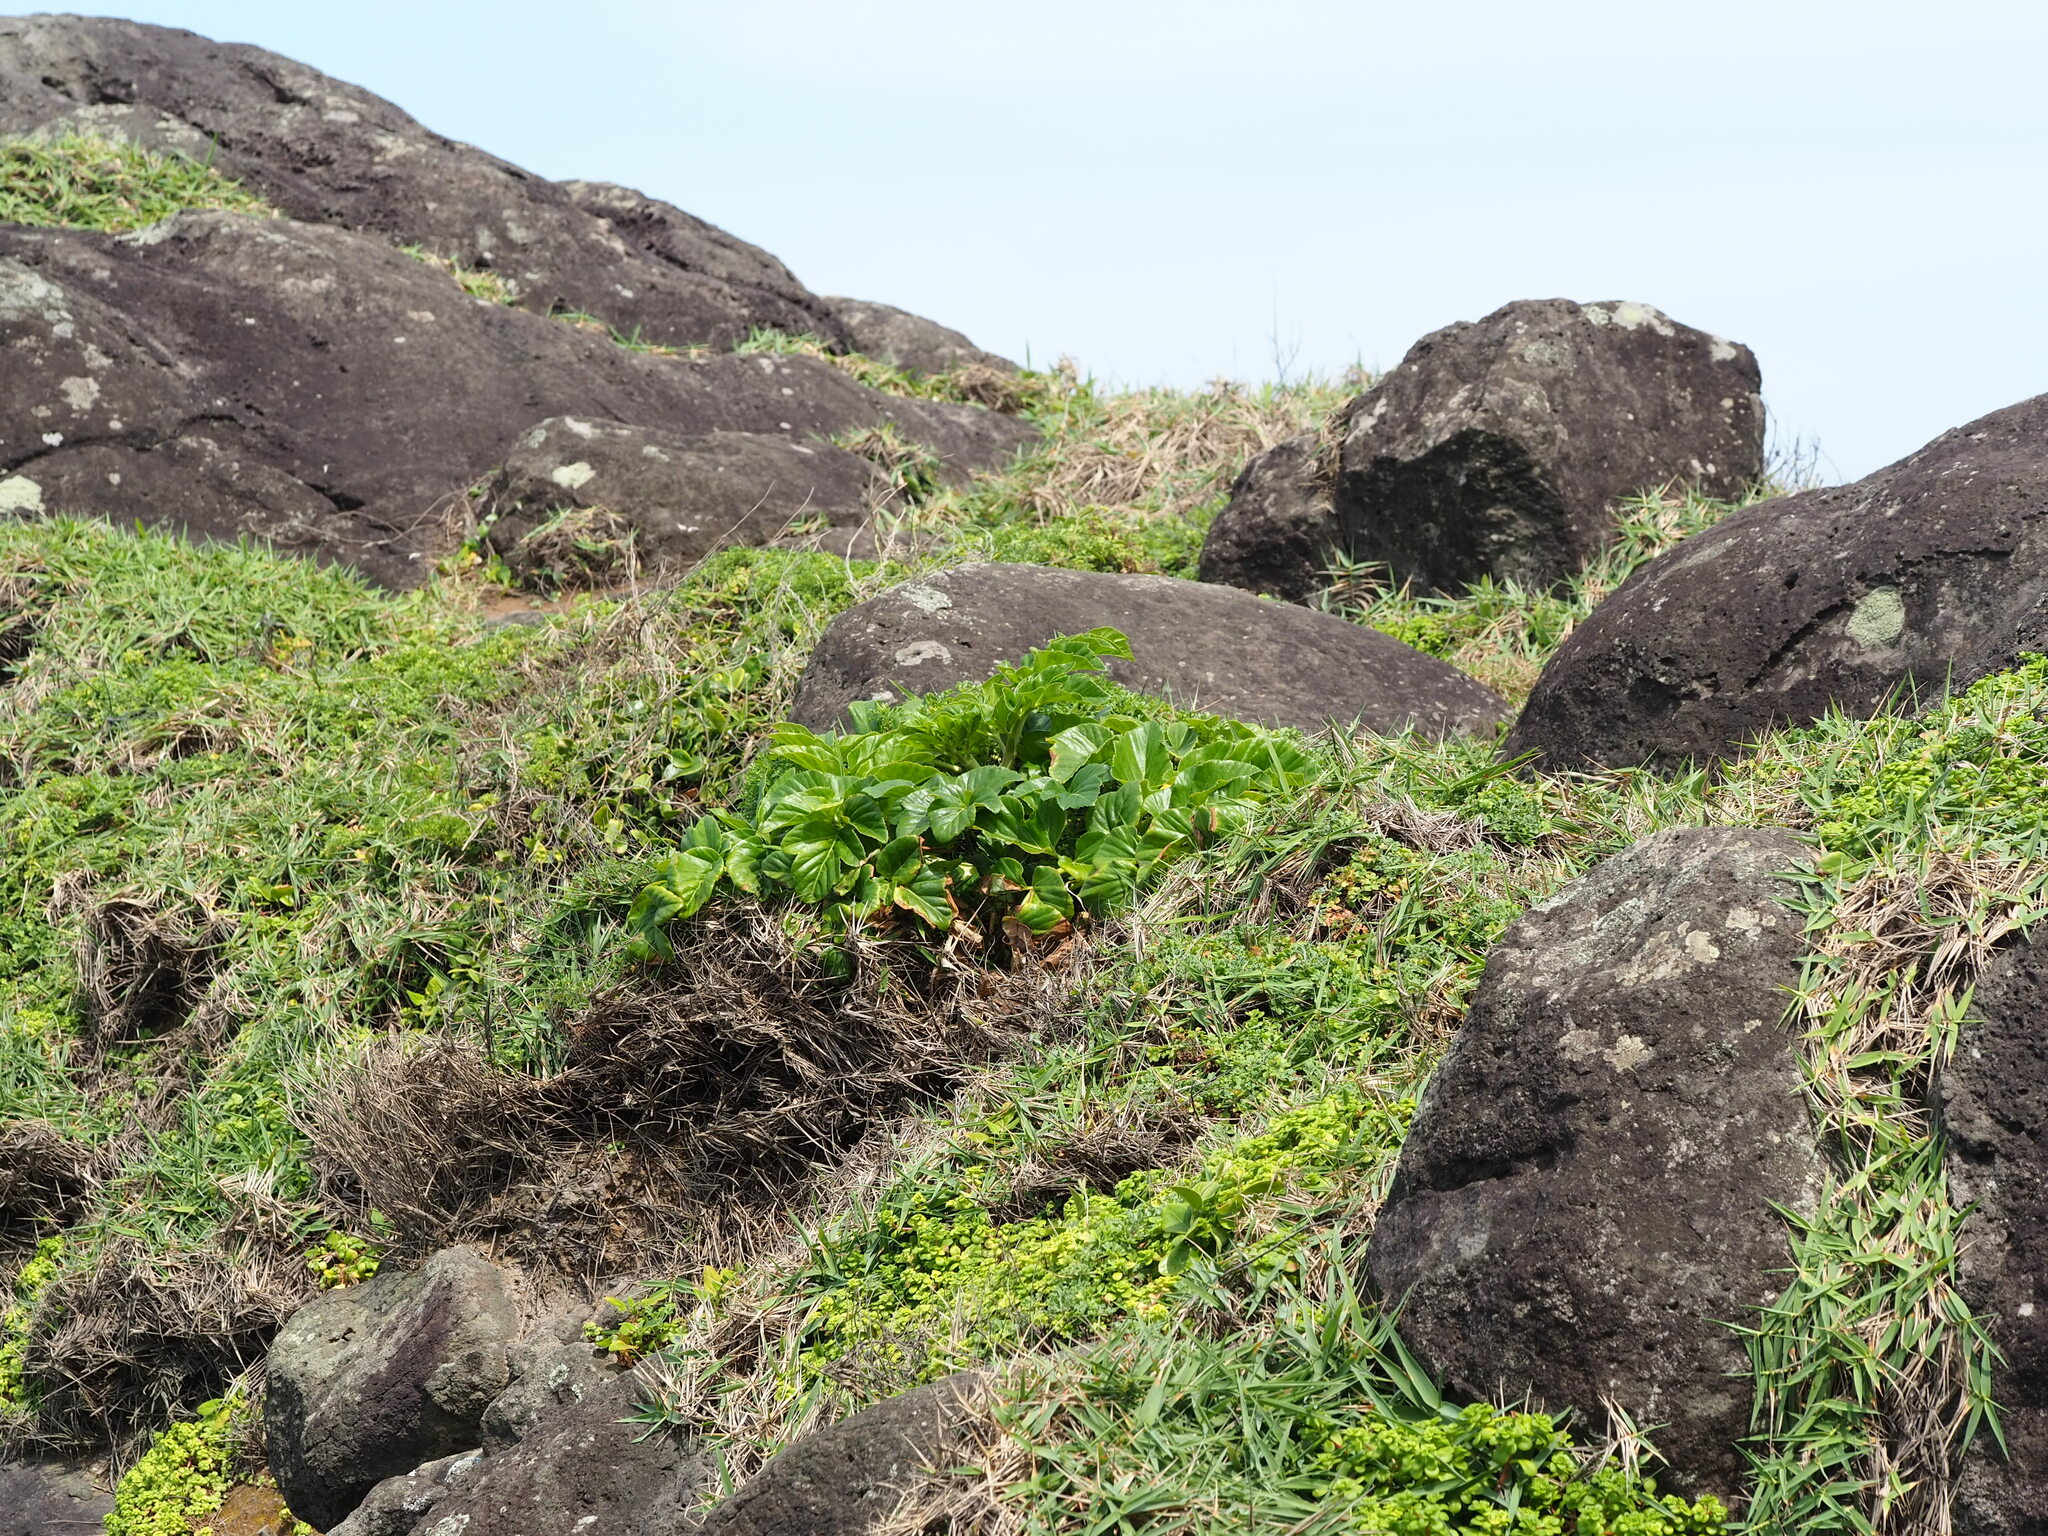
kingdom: Plantae
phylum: Tracheophyta
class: Magnoliopsida
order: Apiales
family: Apiaceae
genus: Angelica
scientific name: Angelica hirsutiflora
